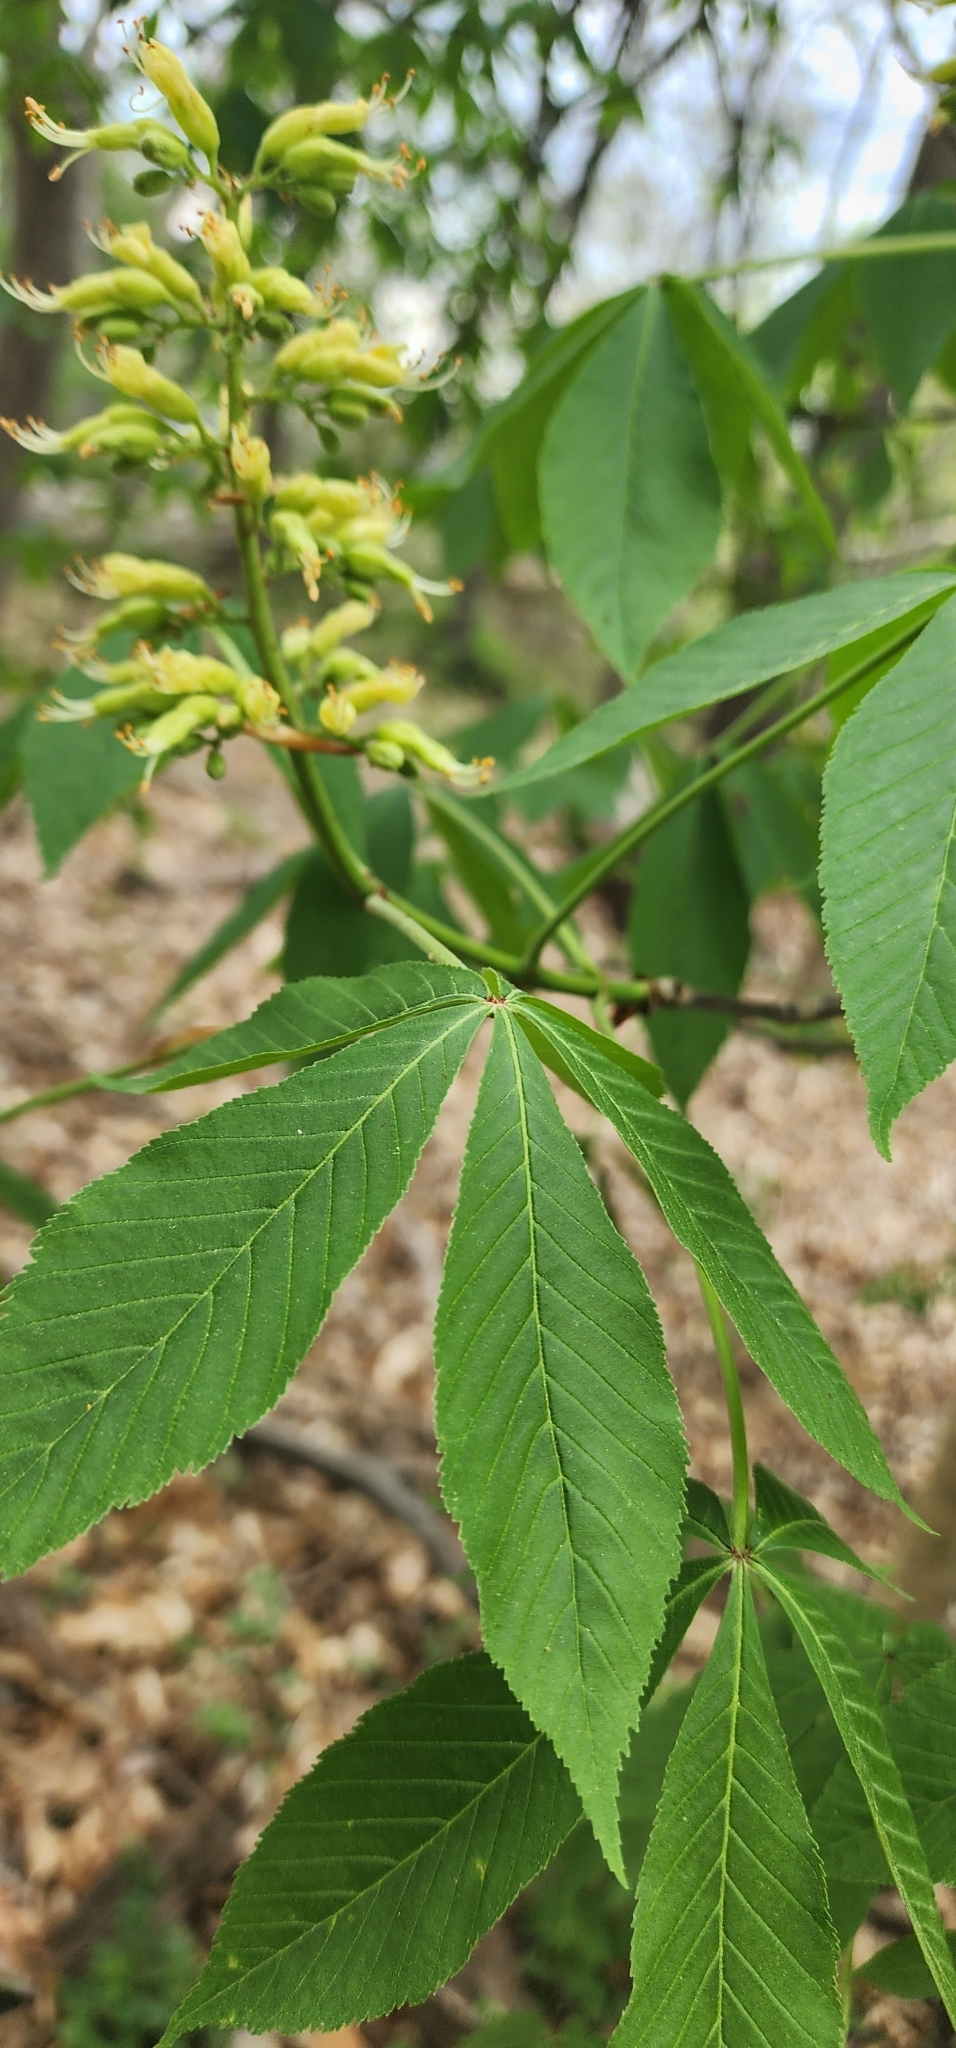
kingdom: Plantae
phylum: Tracheophyta
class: Magnoliopsida
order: Sapindales
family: Sapindaceae
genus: Aesculus
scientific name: Aesculus glabra
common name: Ohio buckeye
